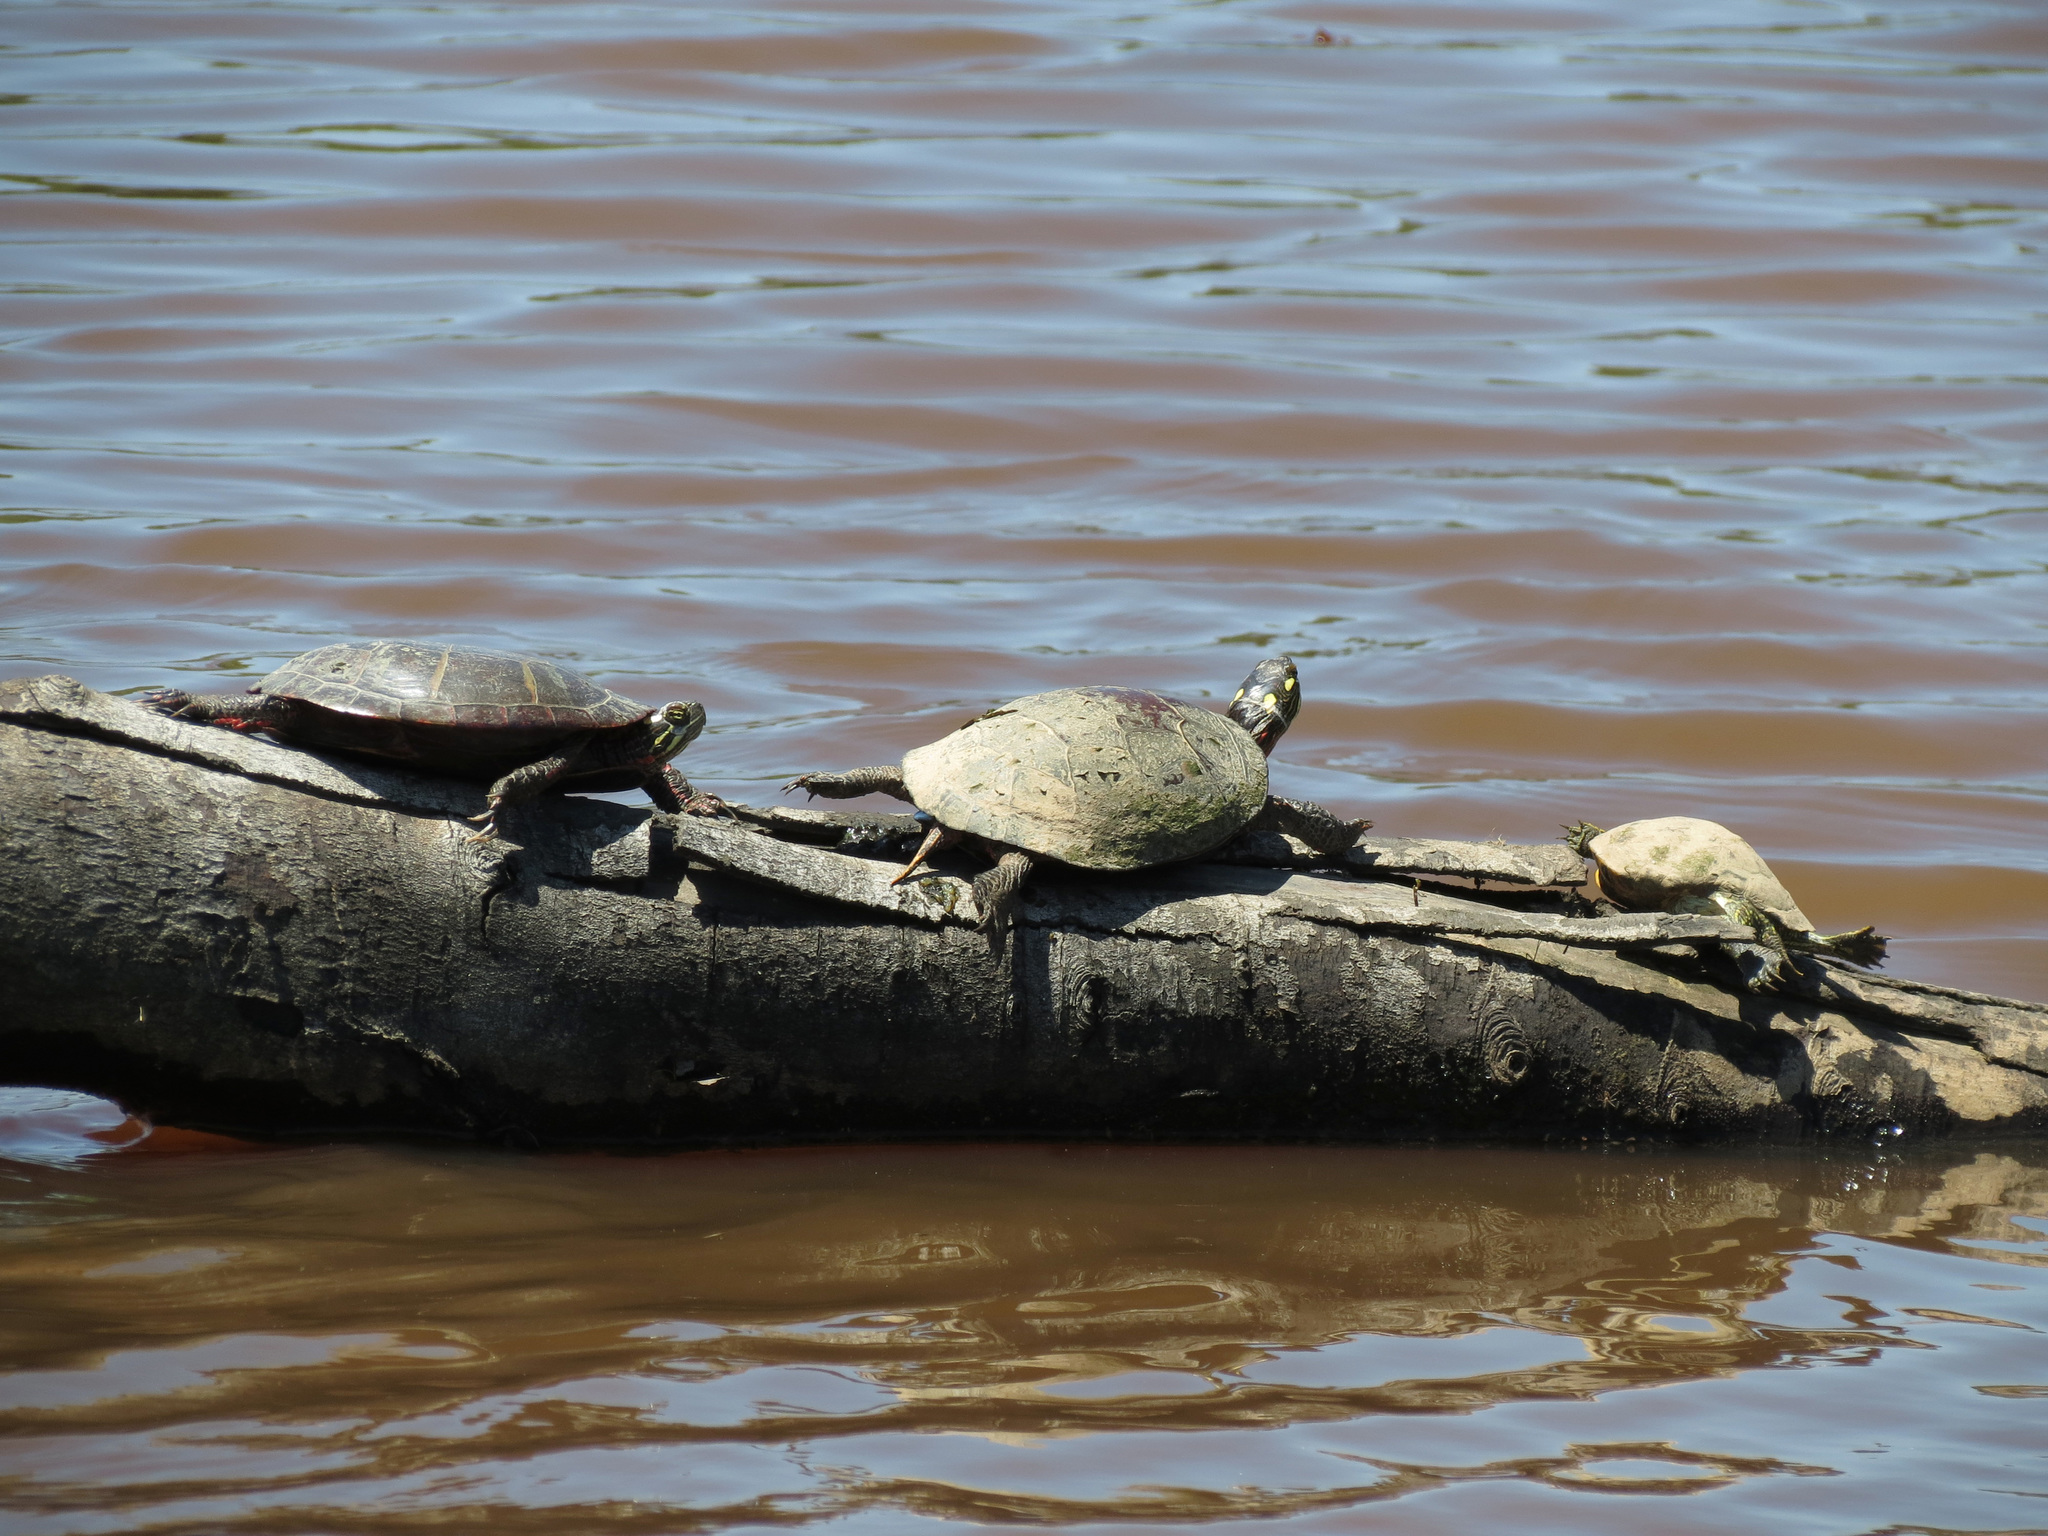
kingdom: Animalia
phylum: Chordata
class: Testudines
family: Emydidae
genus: Chrysemys
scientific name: Chrysemys picta
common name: Painted turtle
